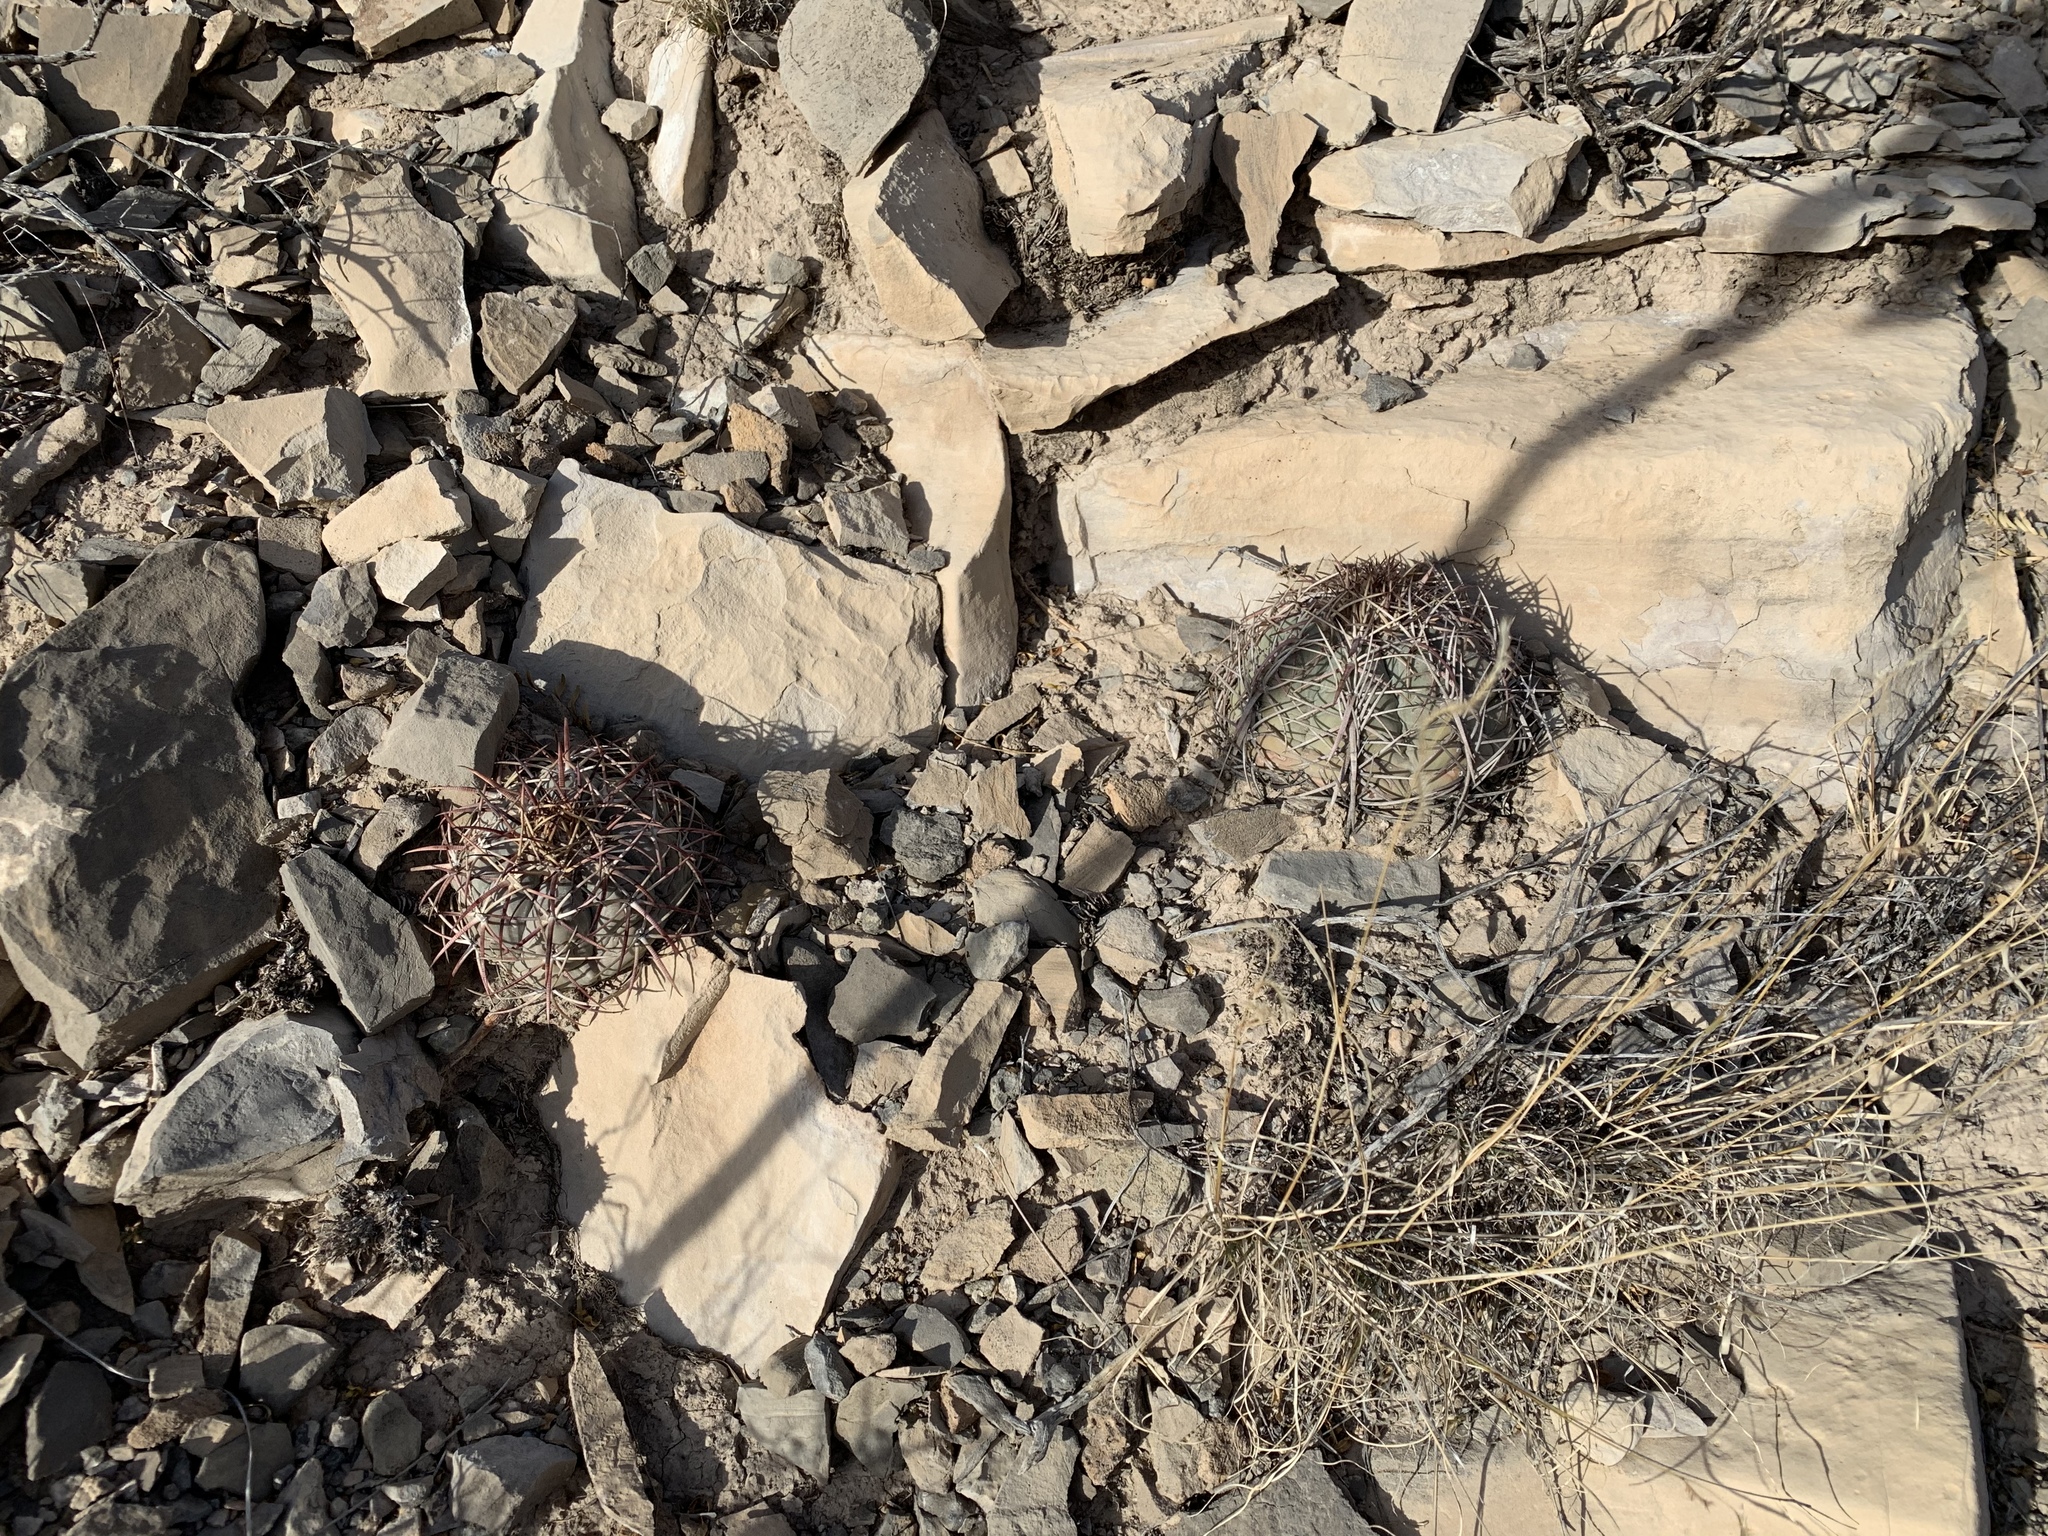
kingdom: Plantae
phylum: Tracheophyta
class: Magnoliopsida
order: Caryophyllales
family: Cactaceae
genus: Echinocactus
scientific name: Echinocactus horizonthalonius
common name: Devilshead
